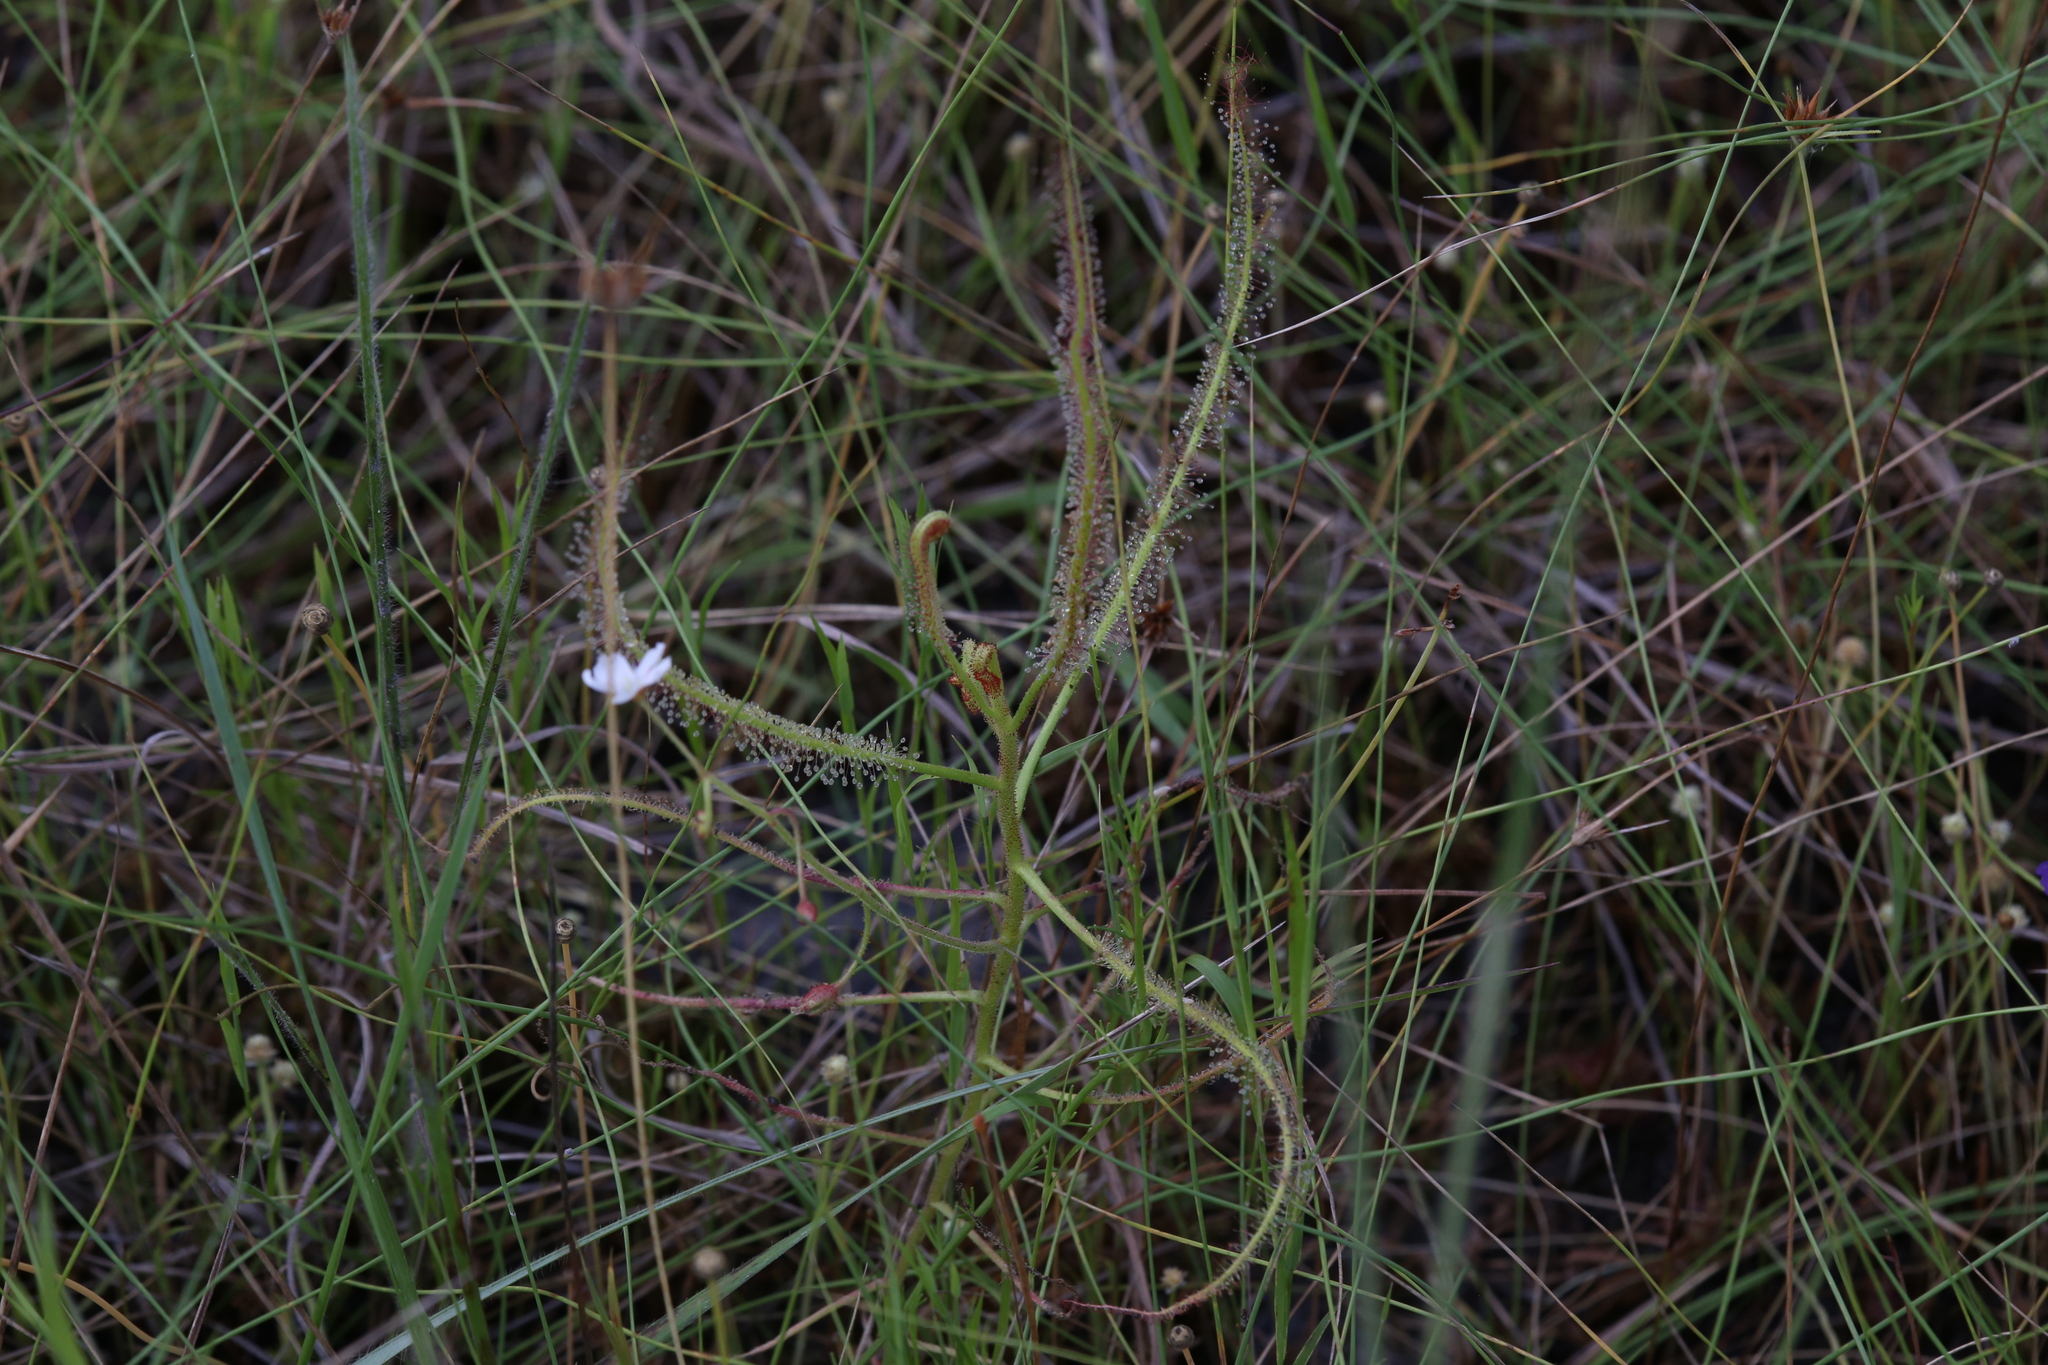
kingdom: Plantae
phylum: Tracheophyta
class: Magnoliopsida
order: Caryophyllales
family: Droseraceae
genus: Drosera
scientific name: Drosera indica
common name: Indian sundew
